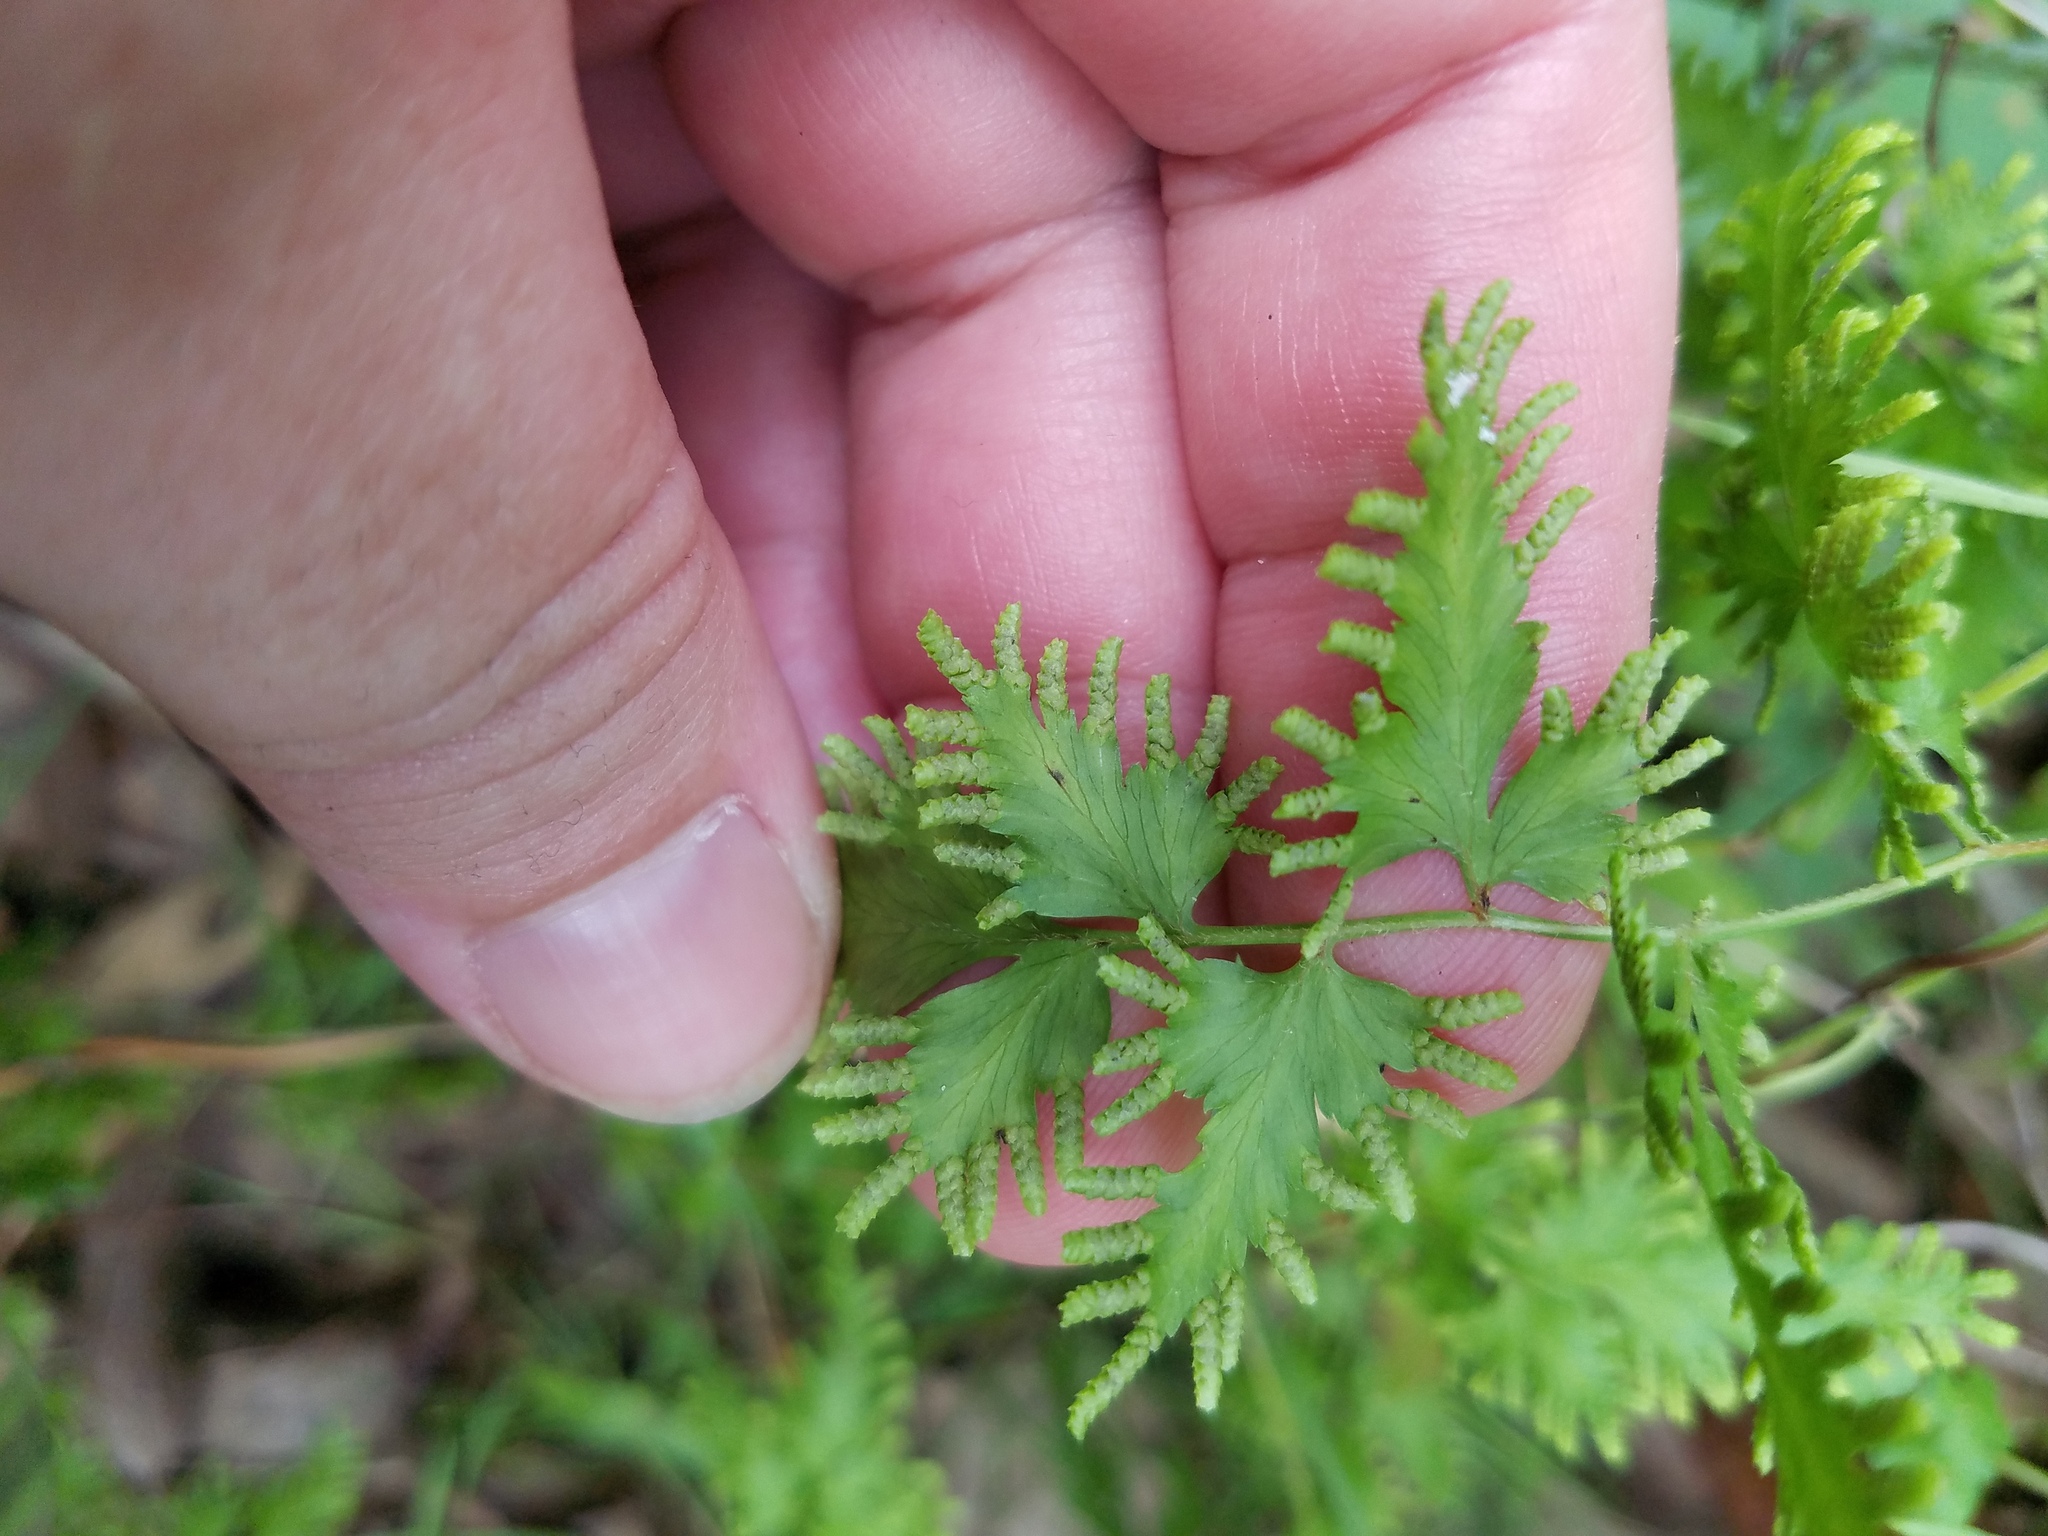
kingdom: Plantae
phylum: Tracheophyta
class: Polypodiopsida
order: Schizaeales
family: Lygodiaceae
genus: Lygodium
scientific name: Lygodium japonicum
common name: Japanese climbing fern
